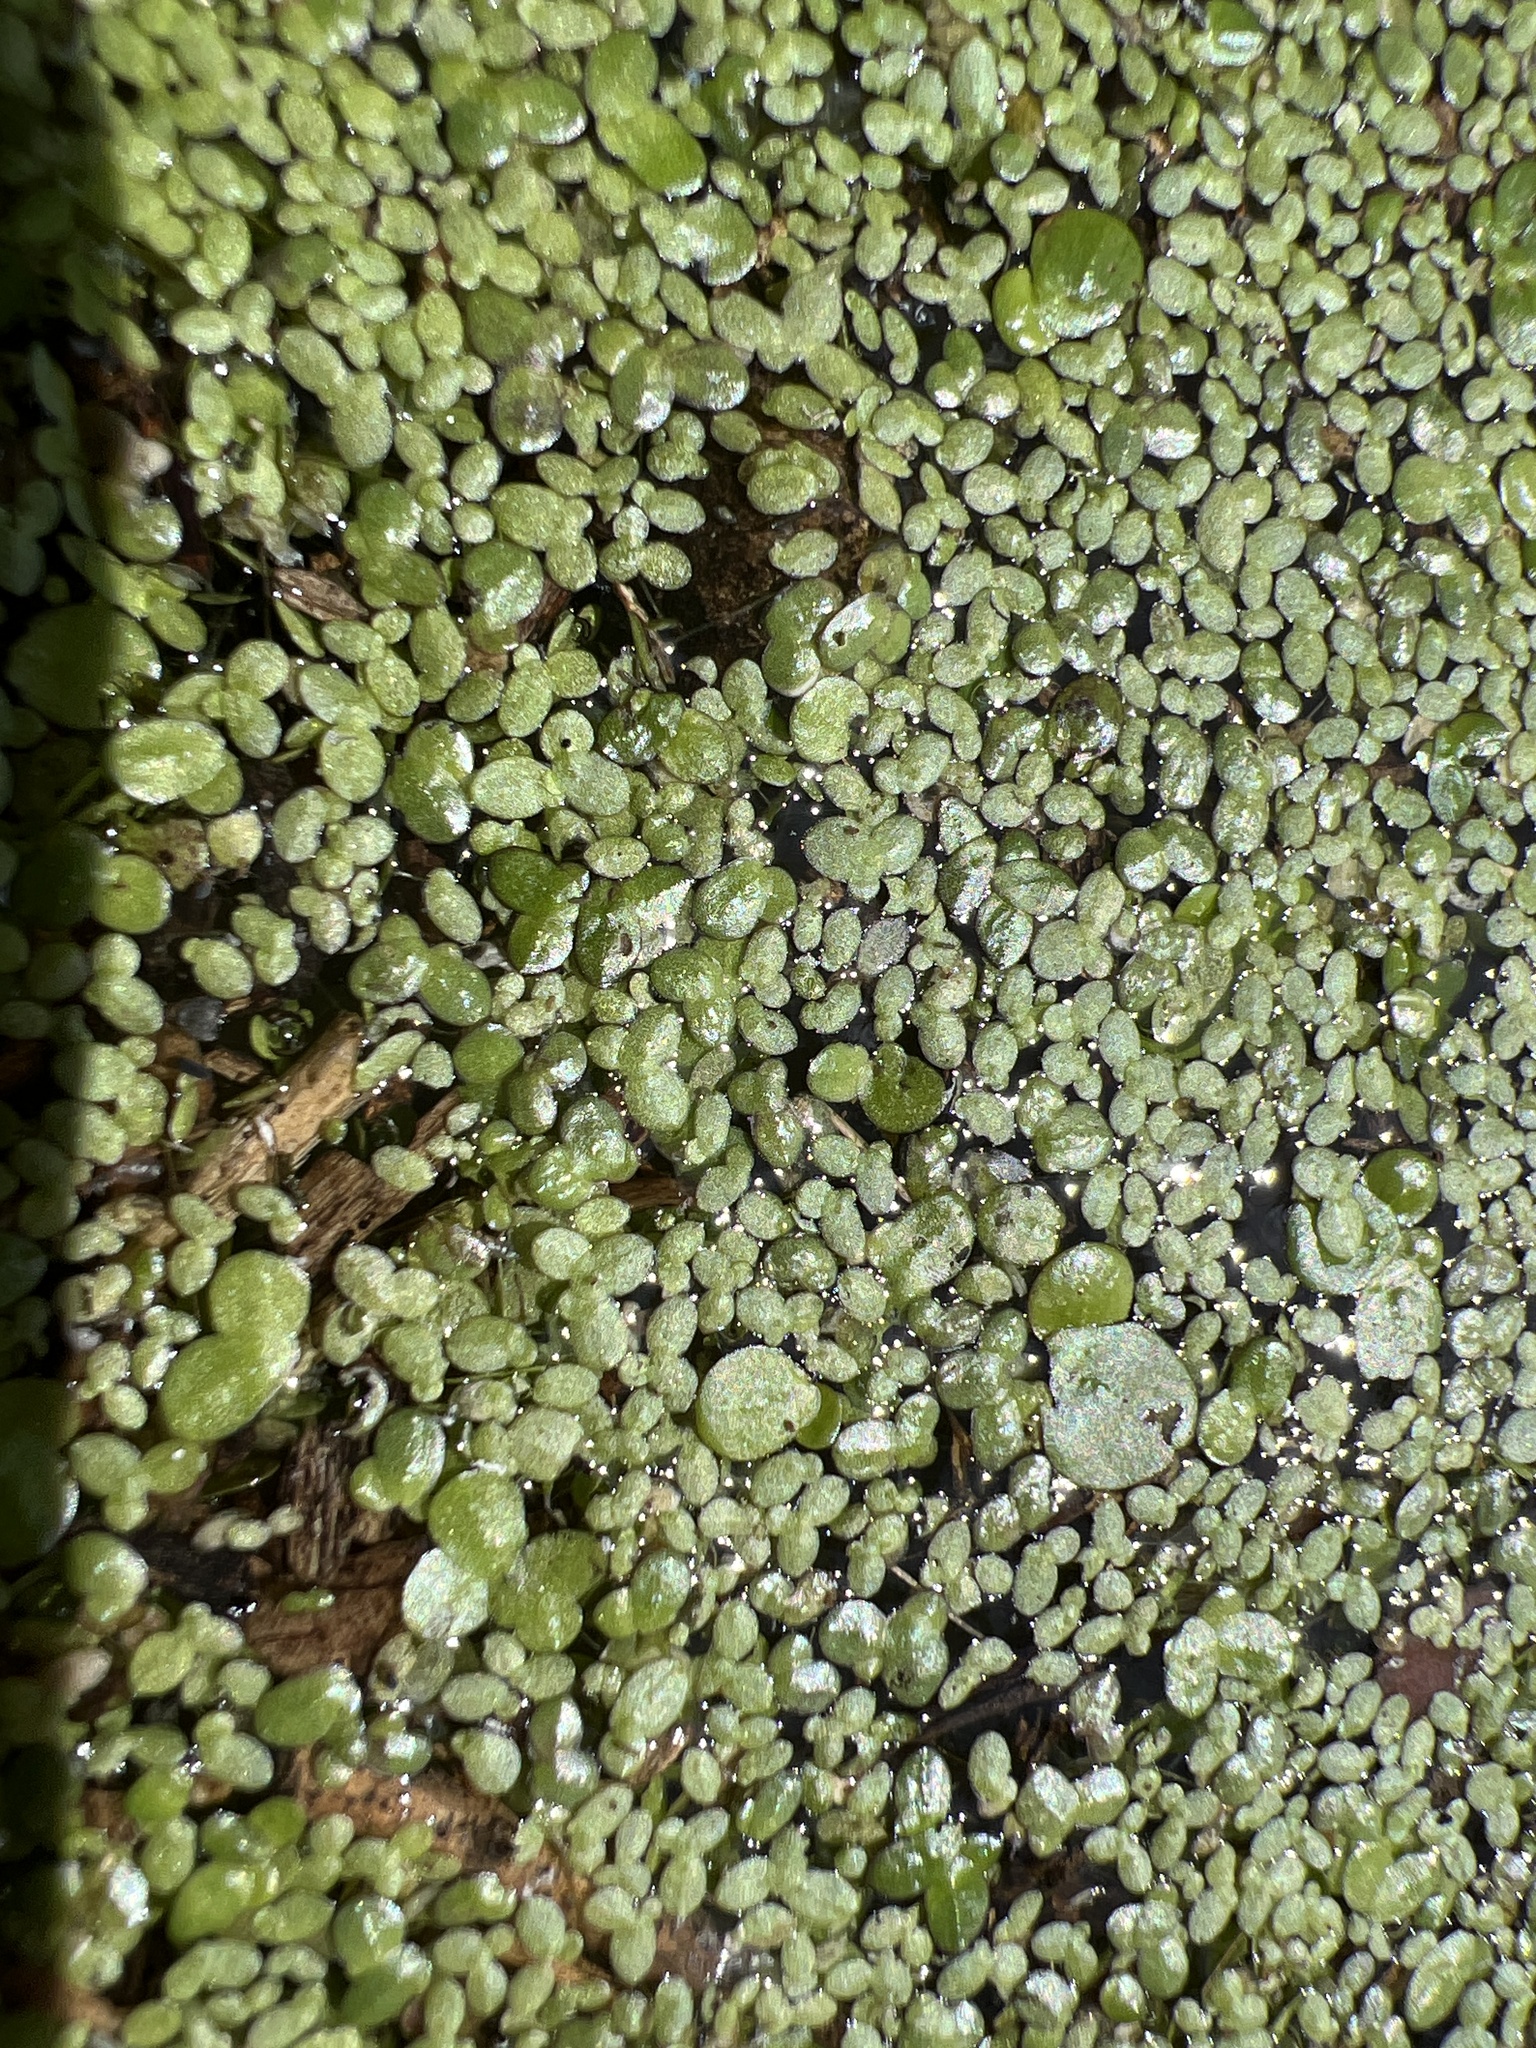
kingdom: Plantae
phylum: Tracheophyta
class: Liliopsida
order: Alismatales
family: Araceae
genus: Spirodela
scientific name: Spirodela polyrhiza
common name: Great duckweed
